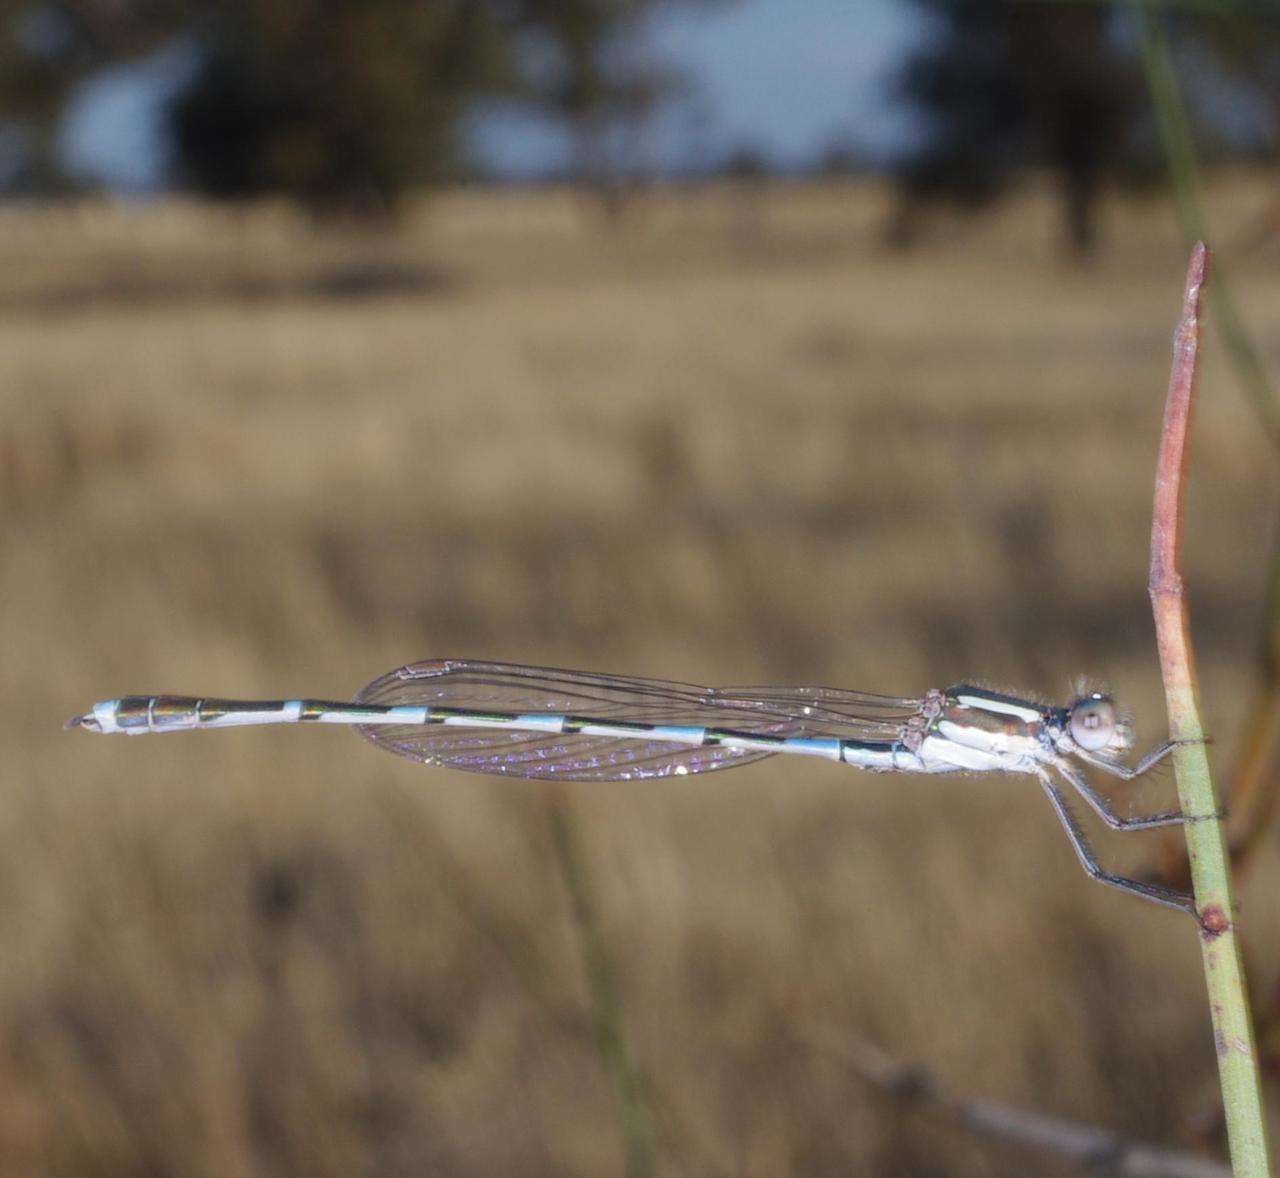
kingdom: Animalia
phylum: Arthropoda
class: Insecta
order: Odonata
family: Lestidae
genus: Austrolestes
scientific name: Austrolestes leda
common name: Wandering ringtail
